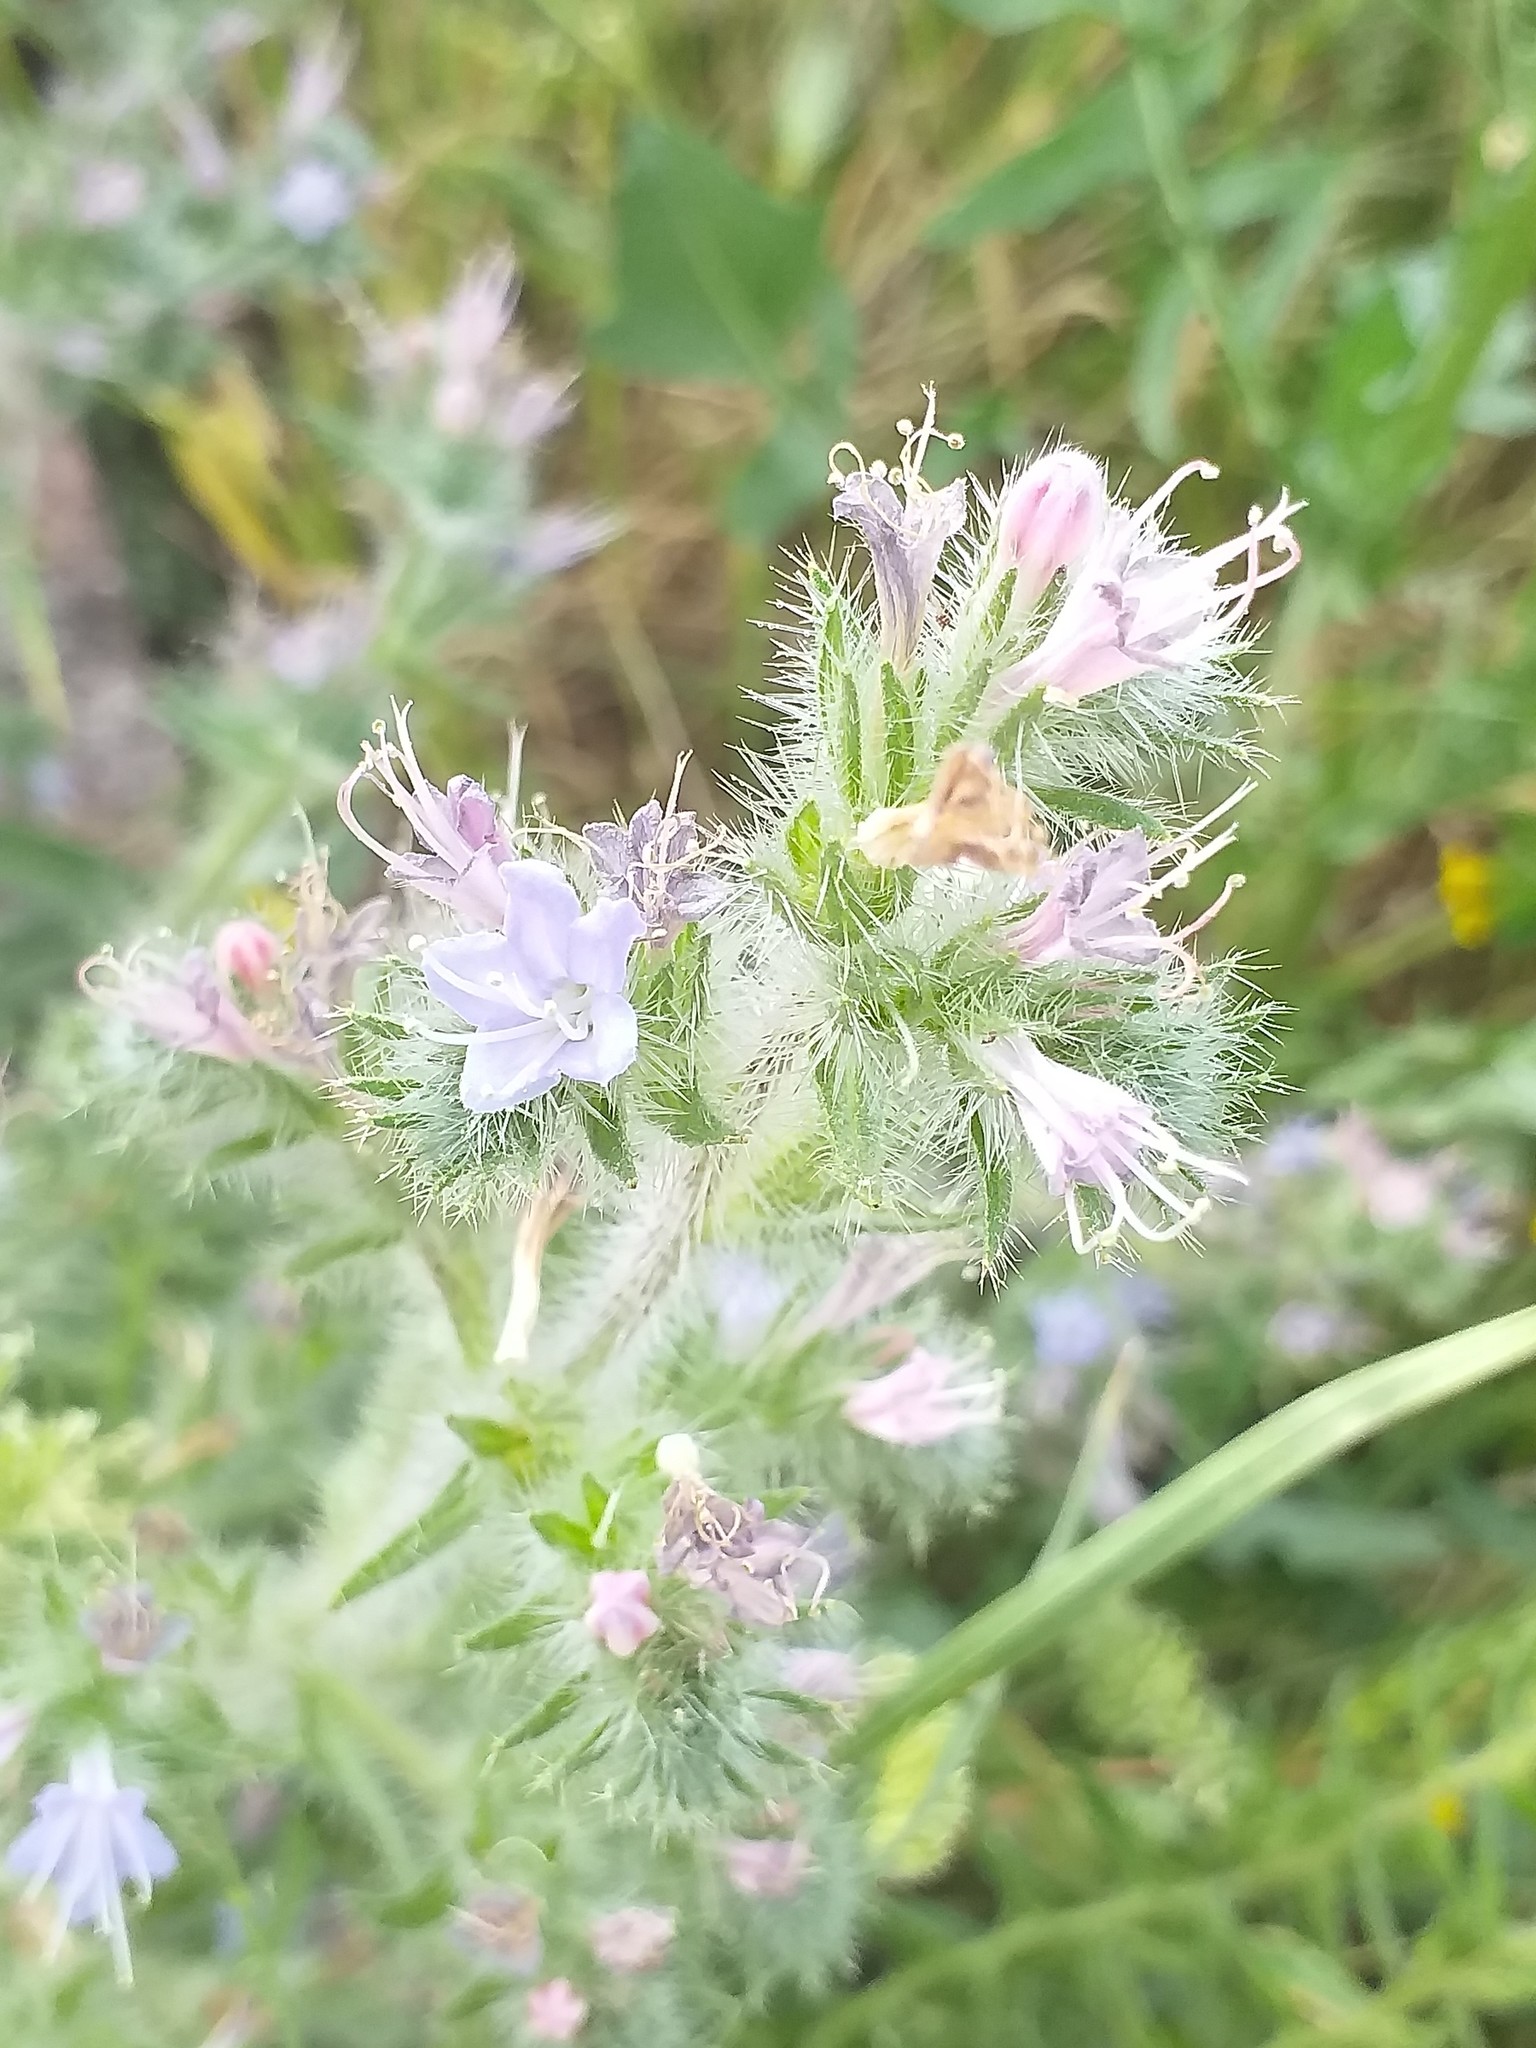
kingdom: Plantae
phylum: Tracheophyta
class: Magnoliopsida
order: Boraginales
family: Boraginaceae
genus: Echium
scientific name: Echium italicum
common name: Italian viper's bugloss
